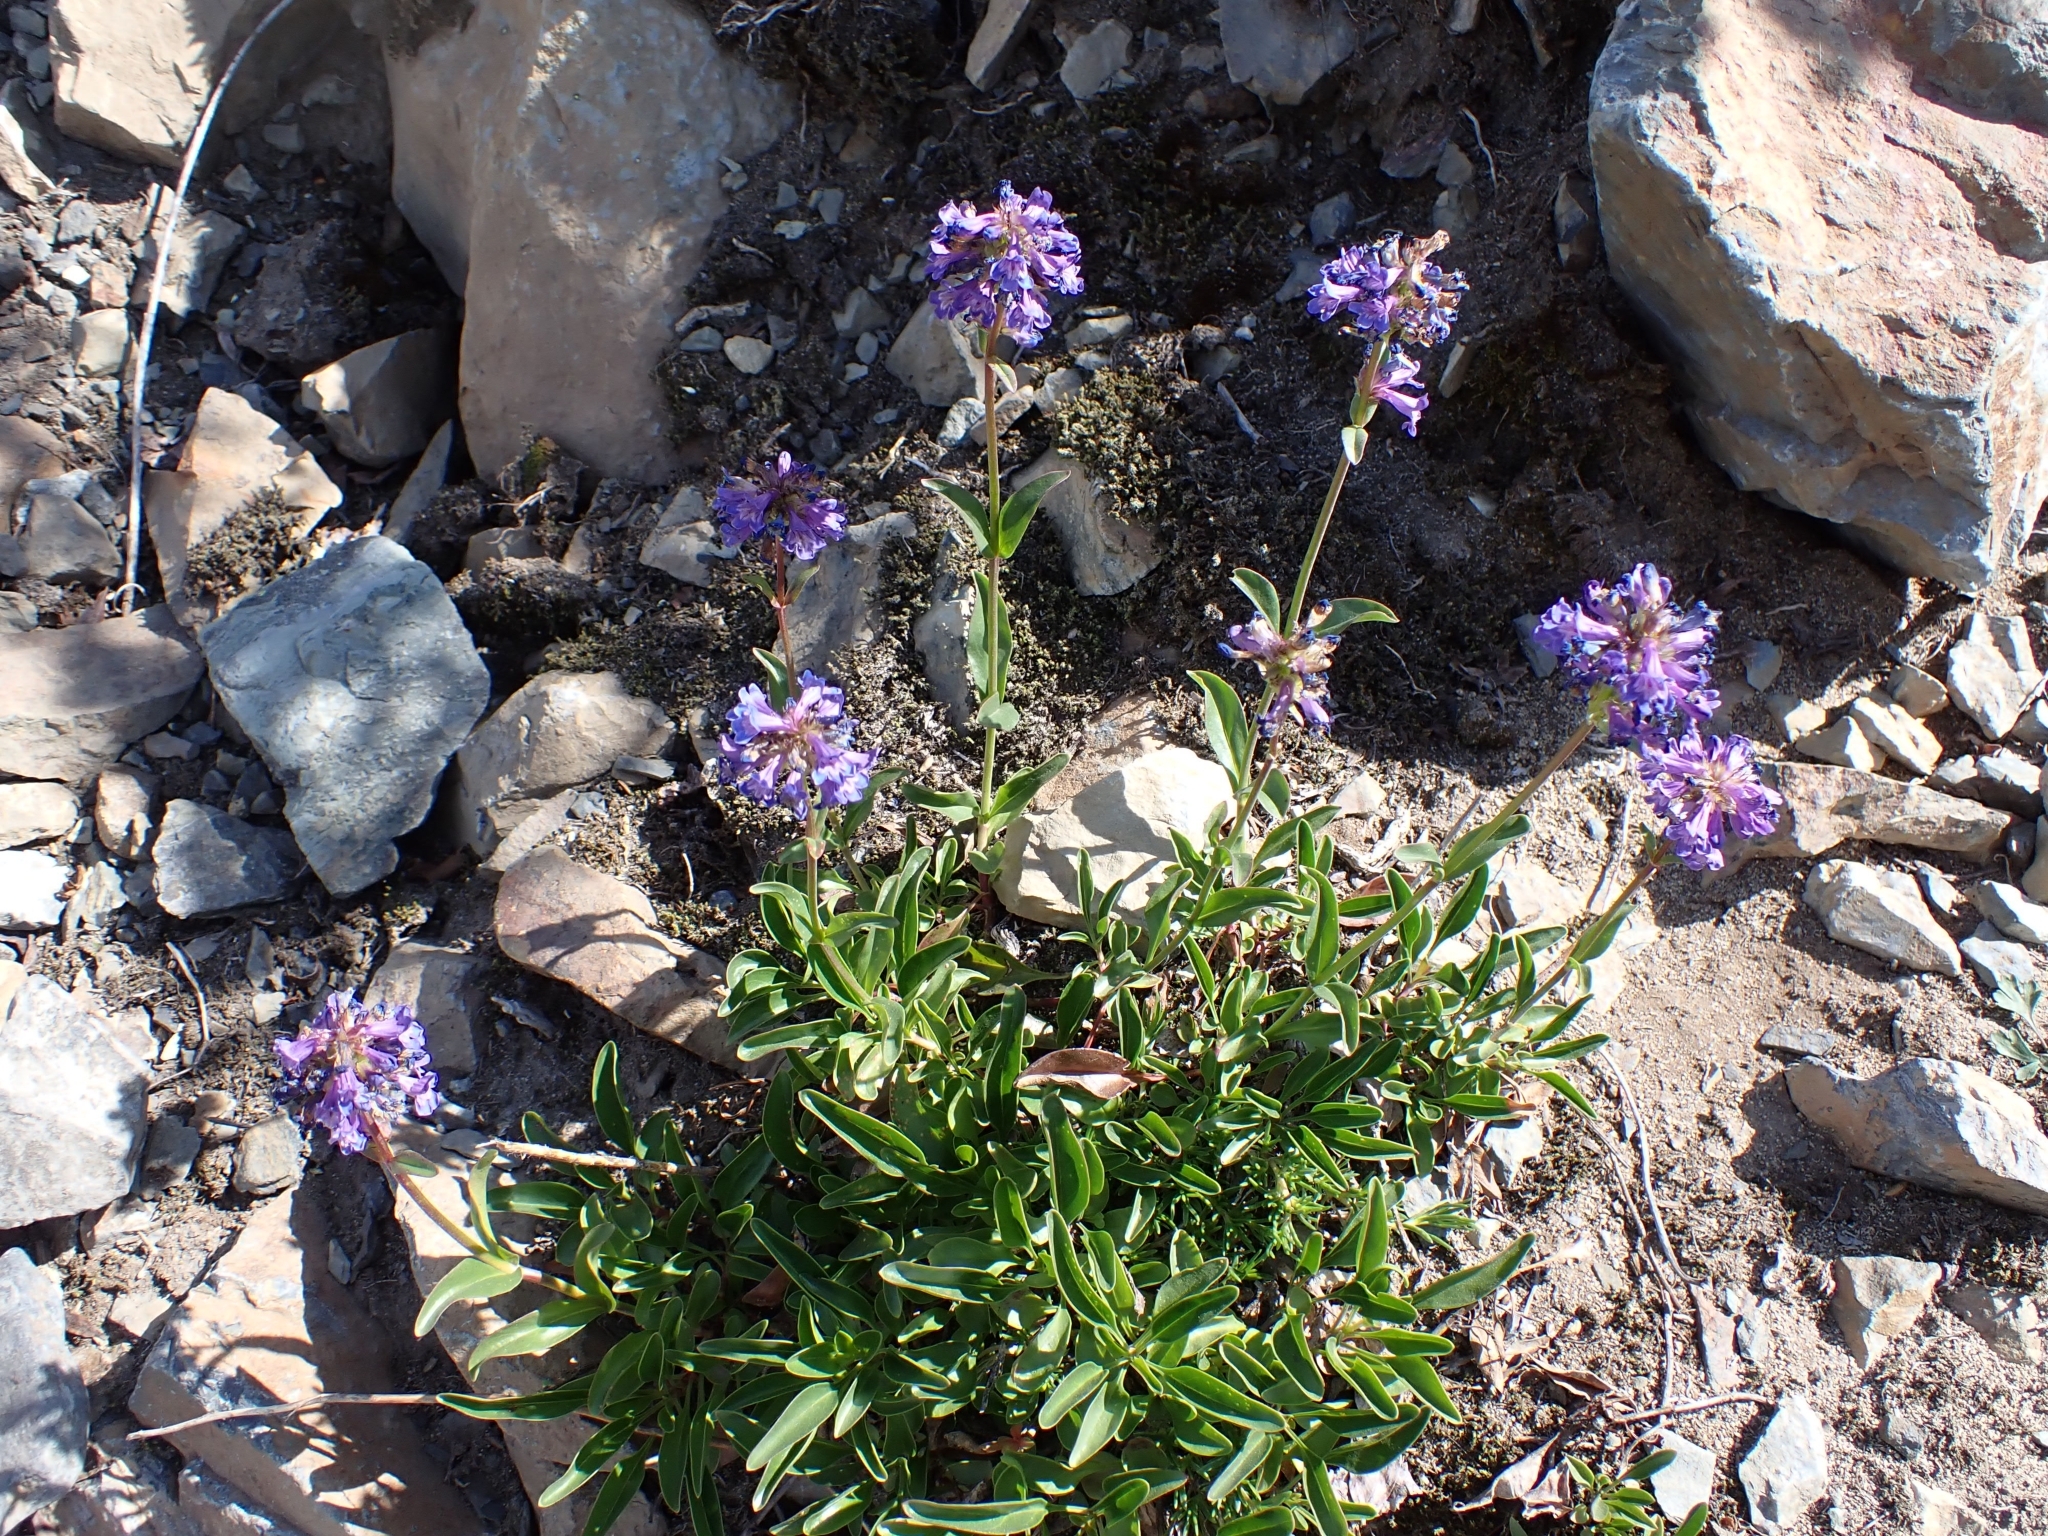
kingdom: Plantae
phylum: Tracheophyta
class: Magnoliopsida
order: Lamiales
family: Plantaginaceae
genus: Penstemon
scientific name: Penstemon procerus
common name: Small-flower penstemon
